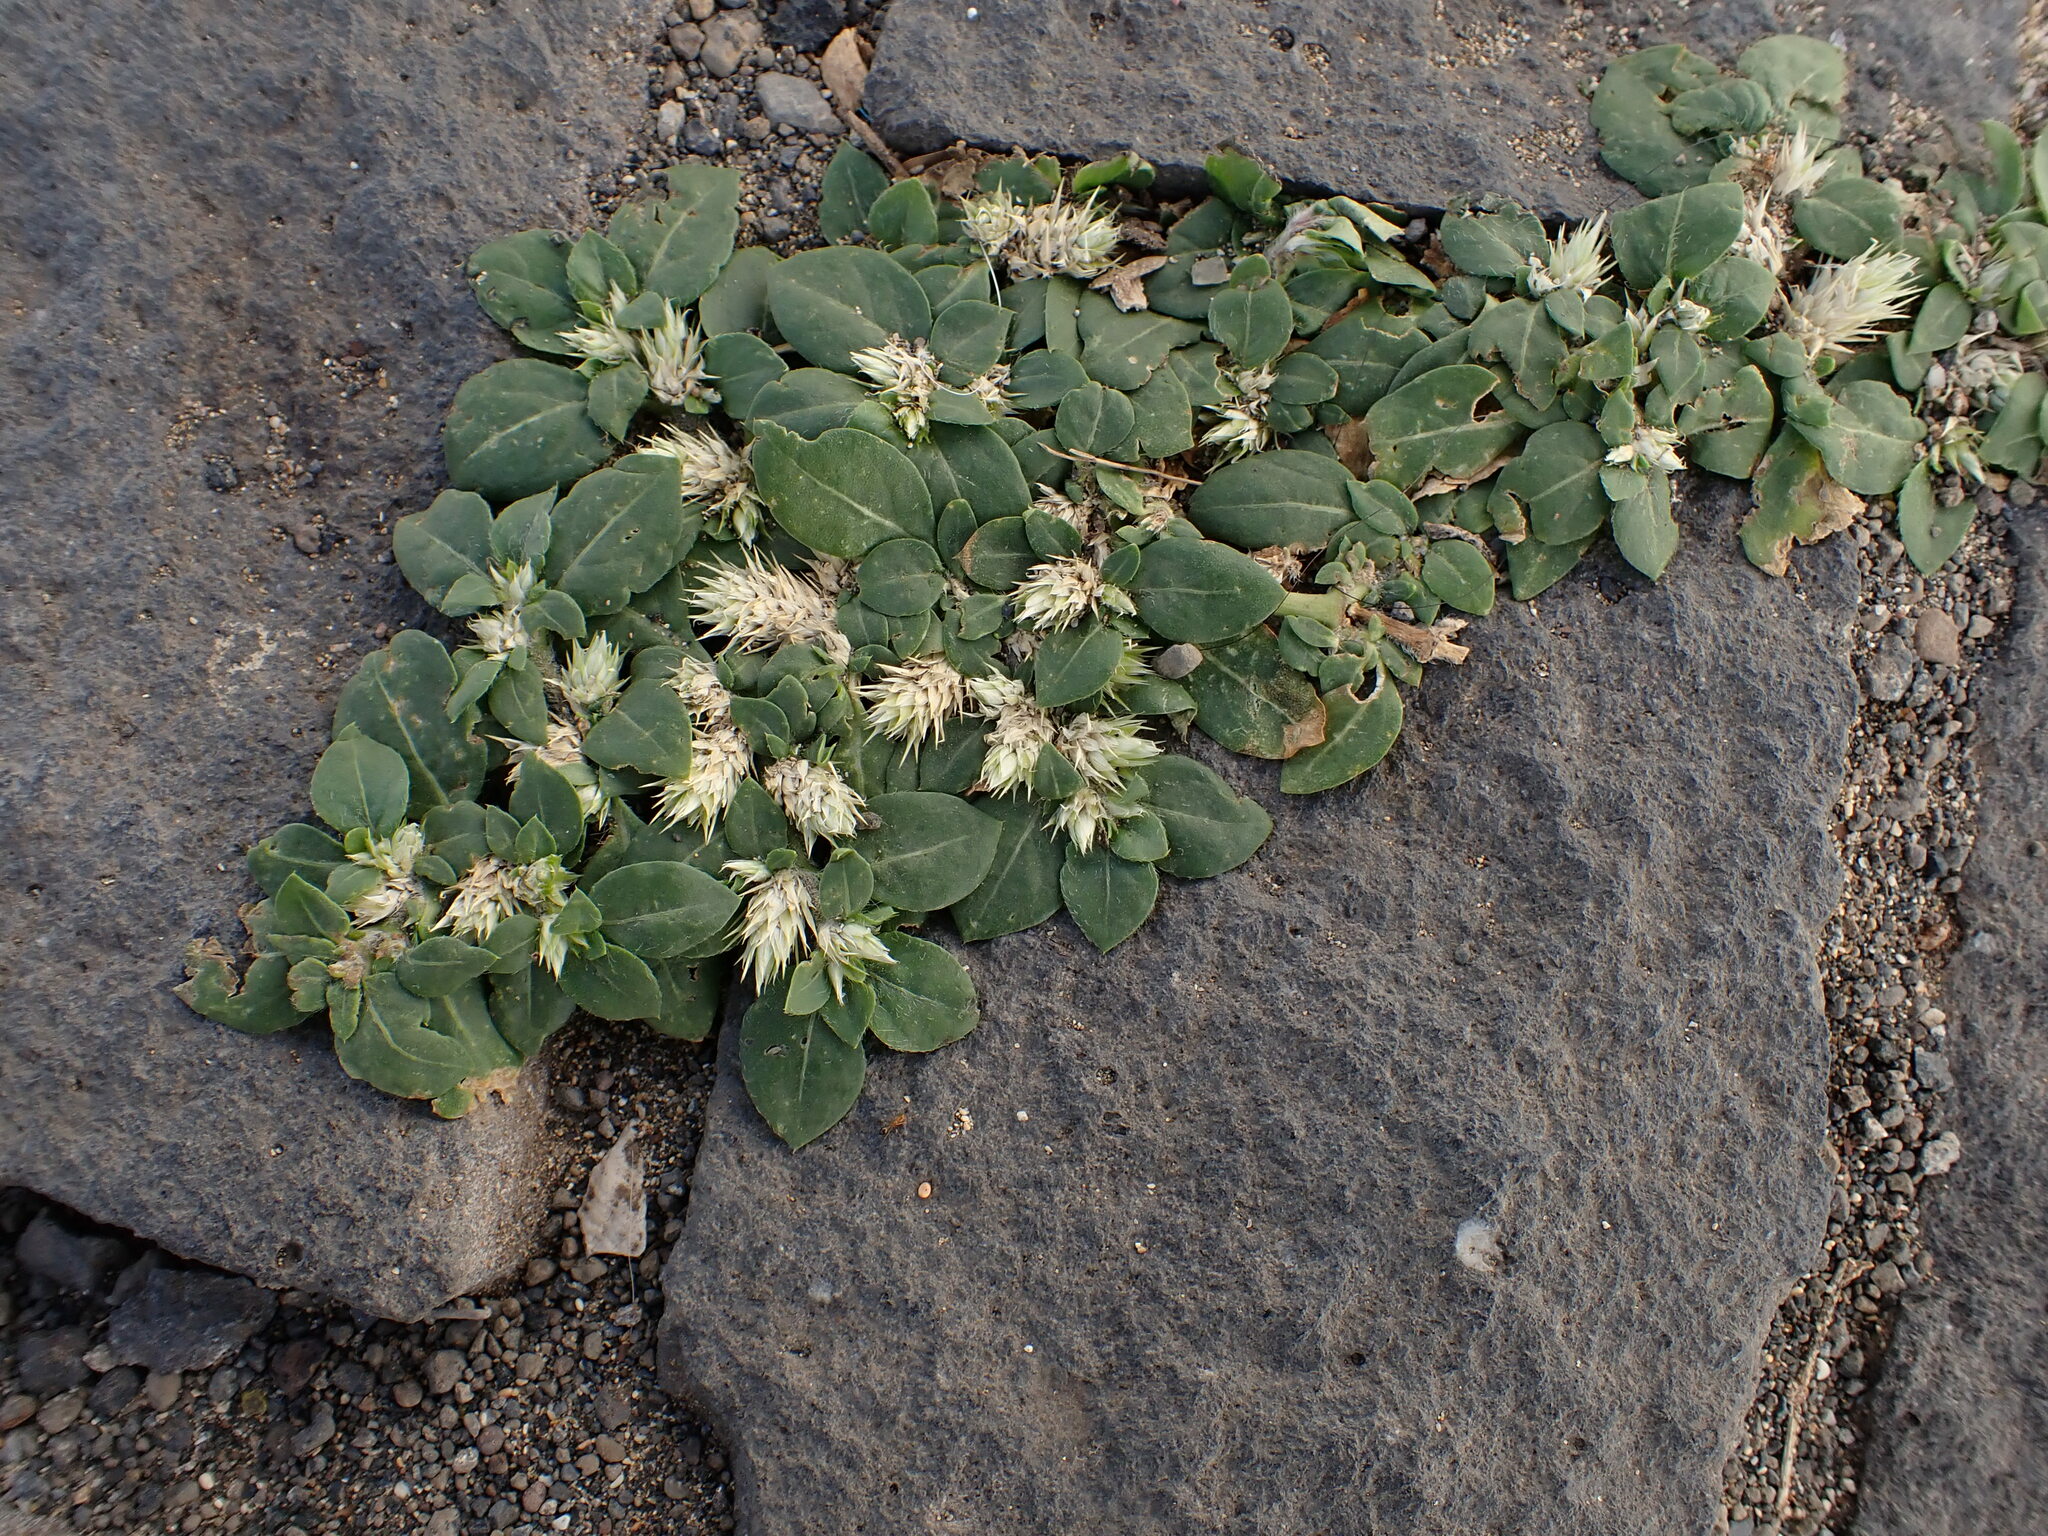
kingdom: Plantae
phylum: Tracheophyta
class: Magnoliopsida
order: Caryophyllales
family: Amaranthaceae
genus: Alternanthera
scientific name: Alternanthera pungens
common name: Khakiweed
